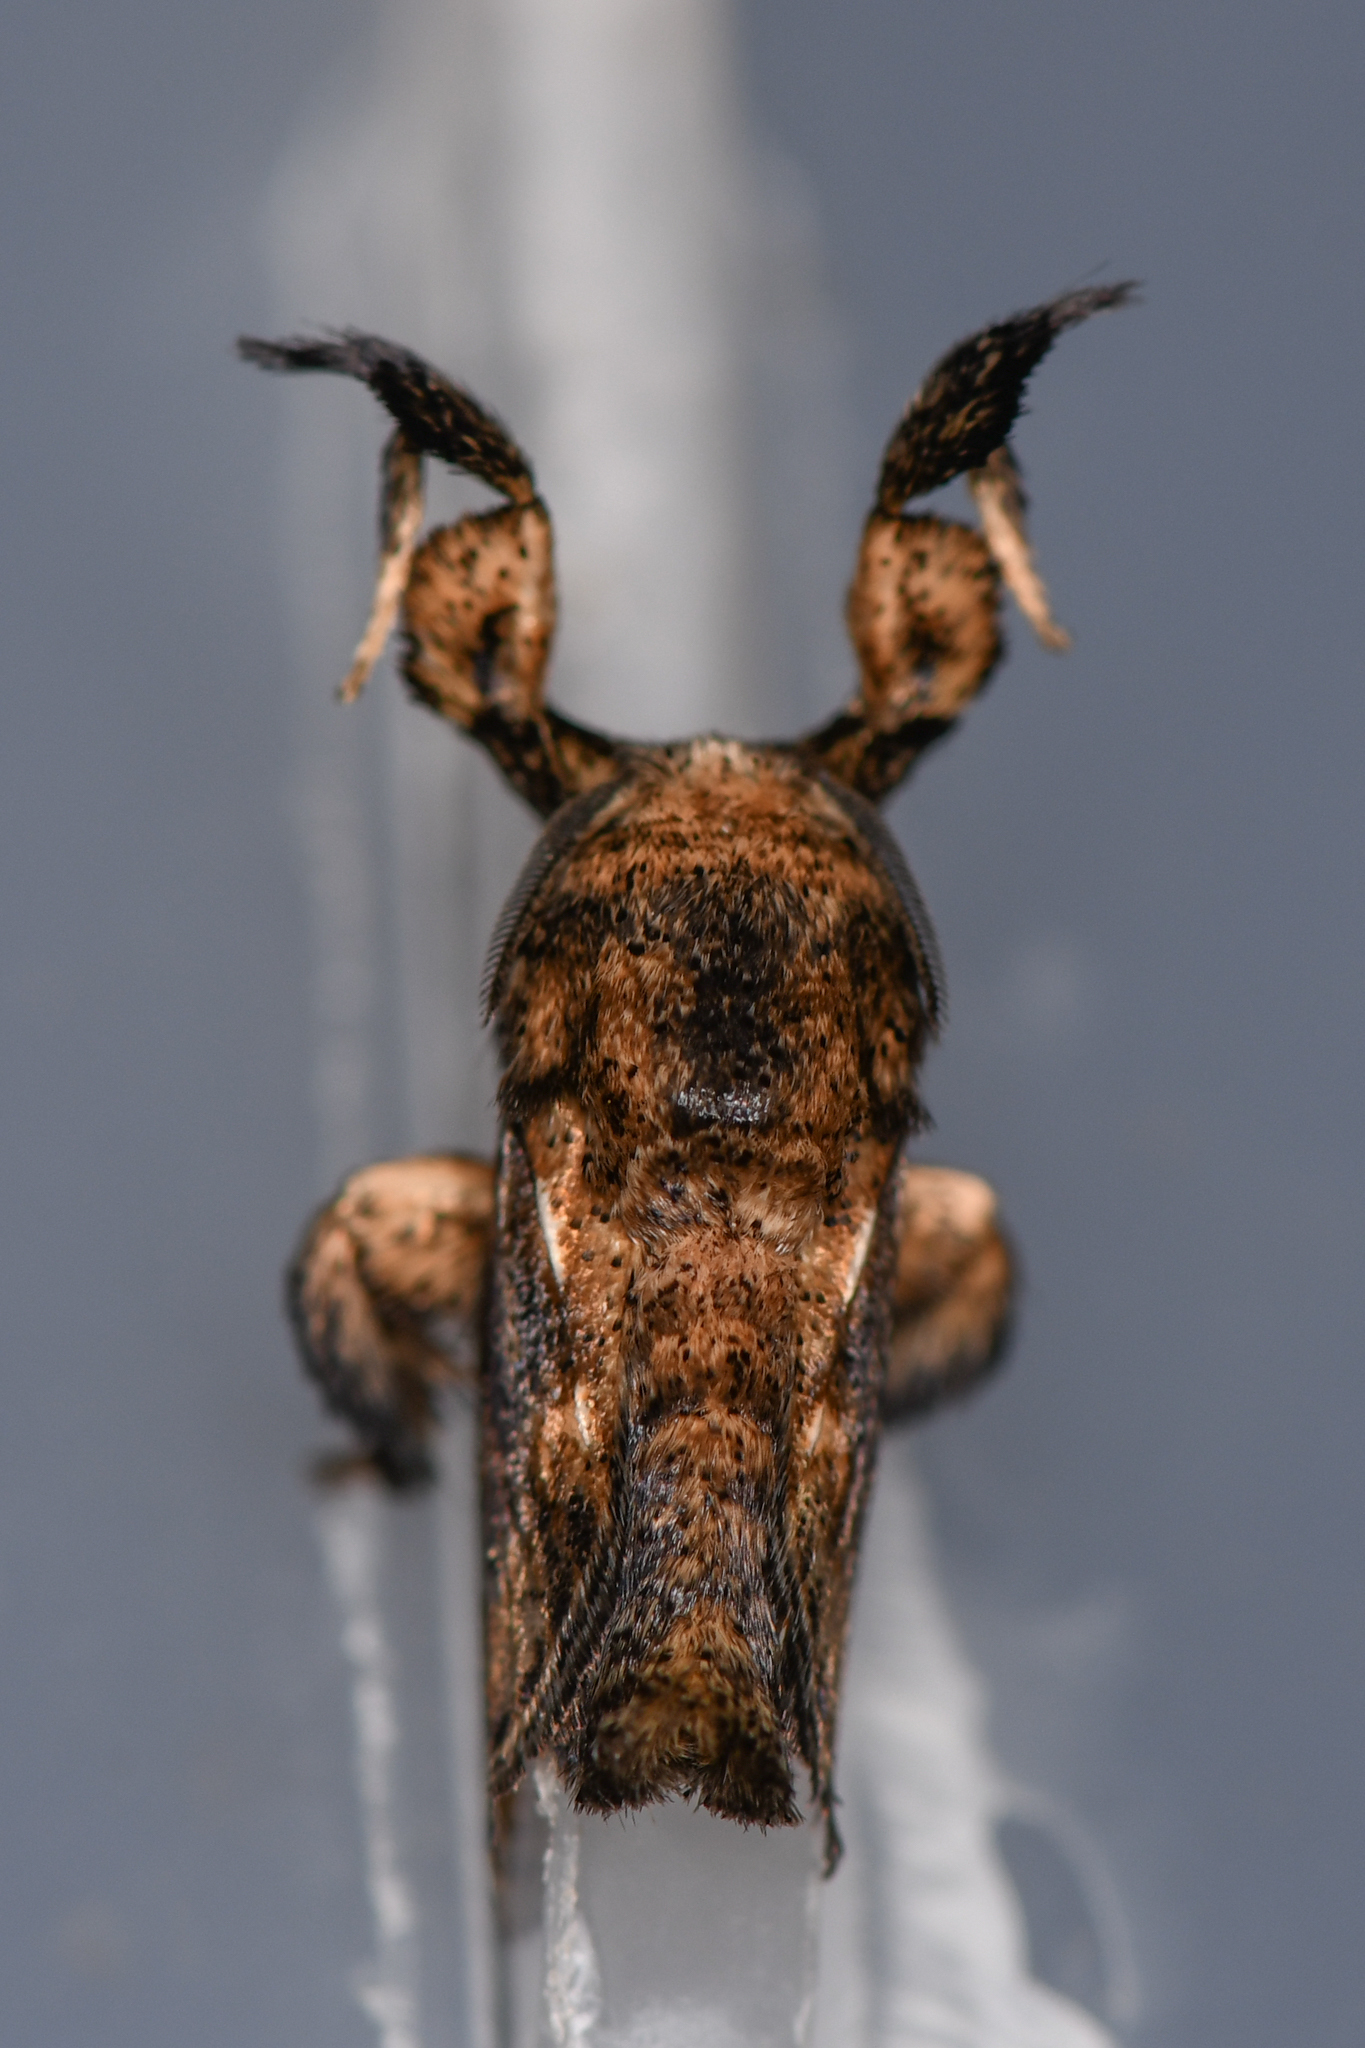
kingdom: Animalia
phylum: Arthropoda
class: Insecta
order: Lepidoptera
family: Limacodidae
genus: Epiperola
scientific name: Epiperola
